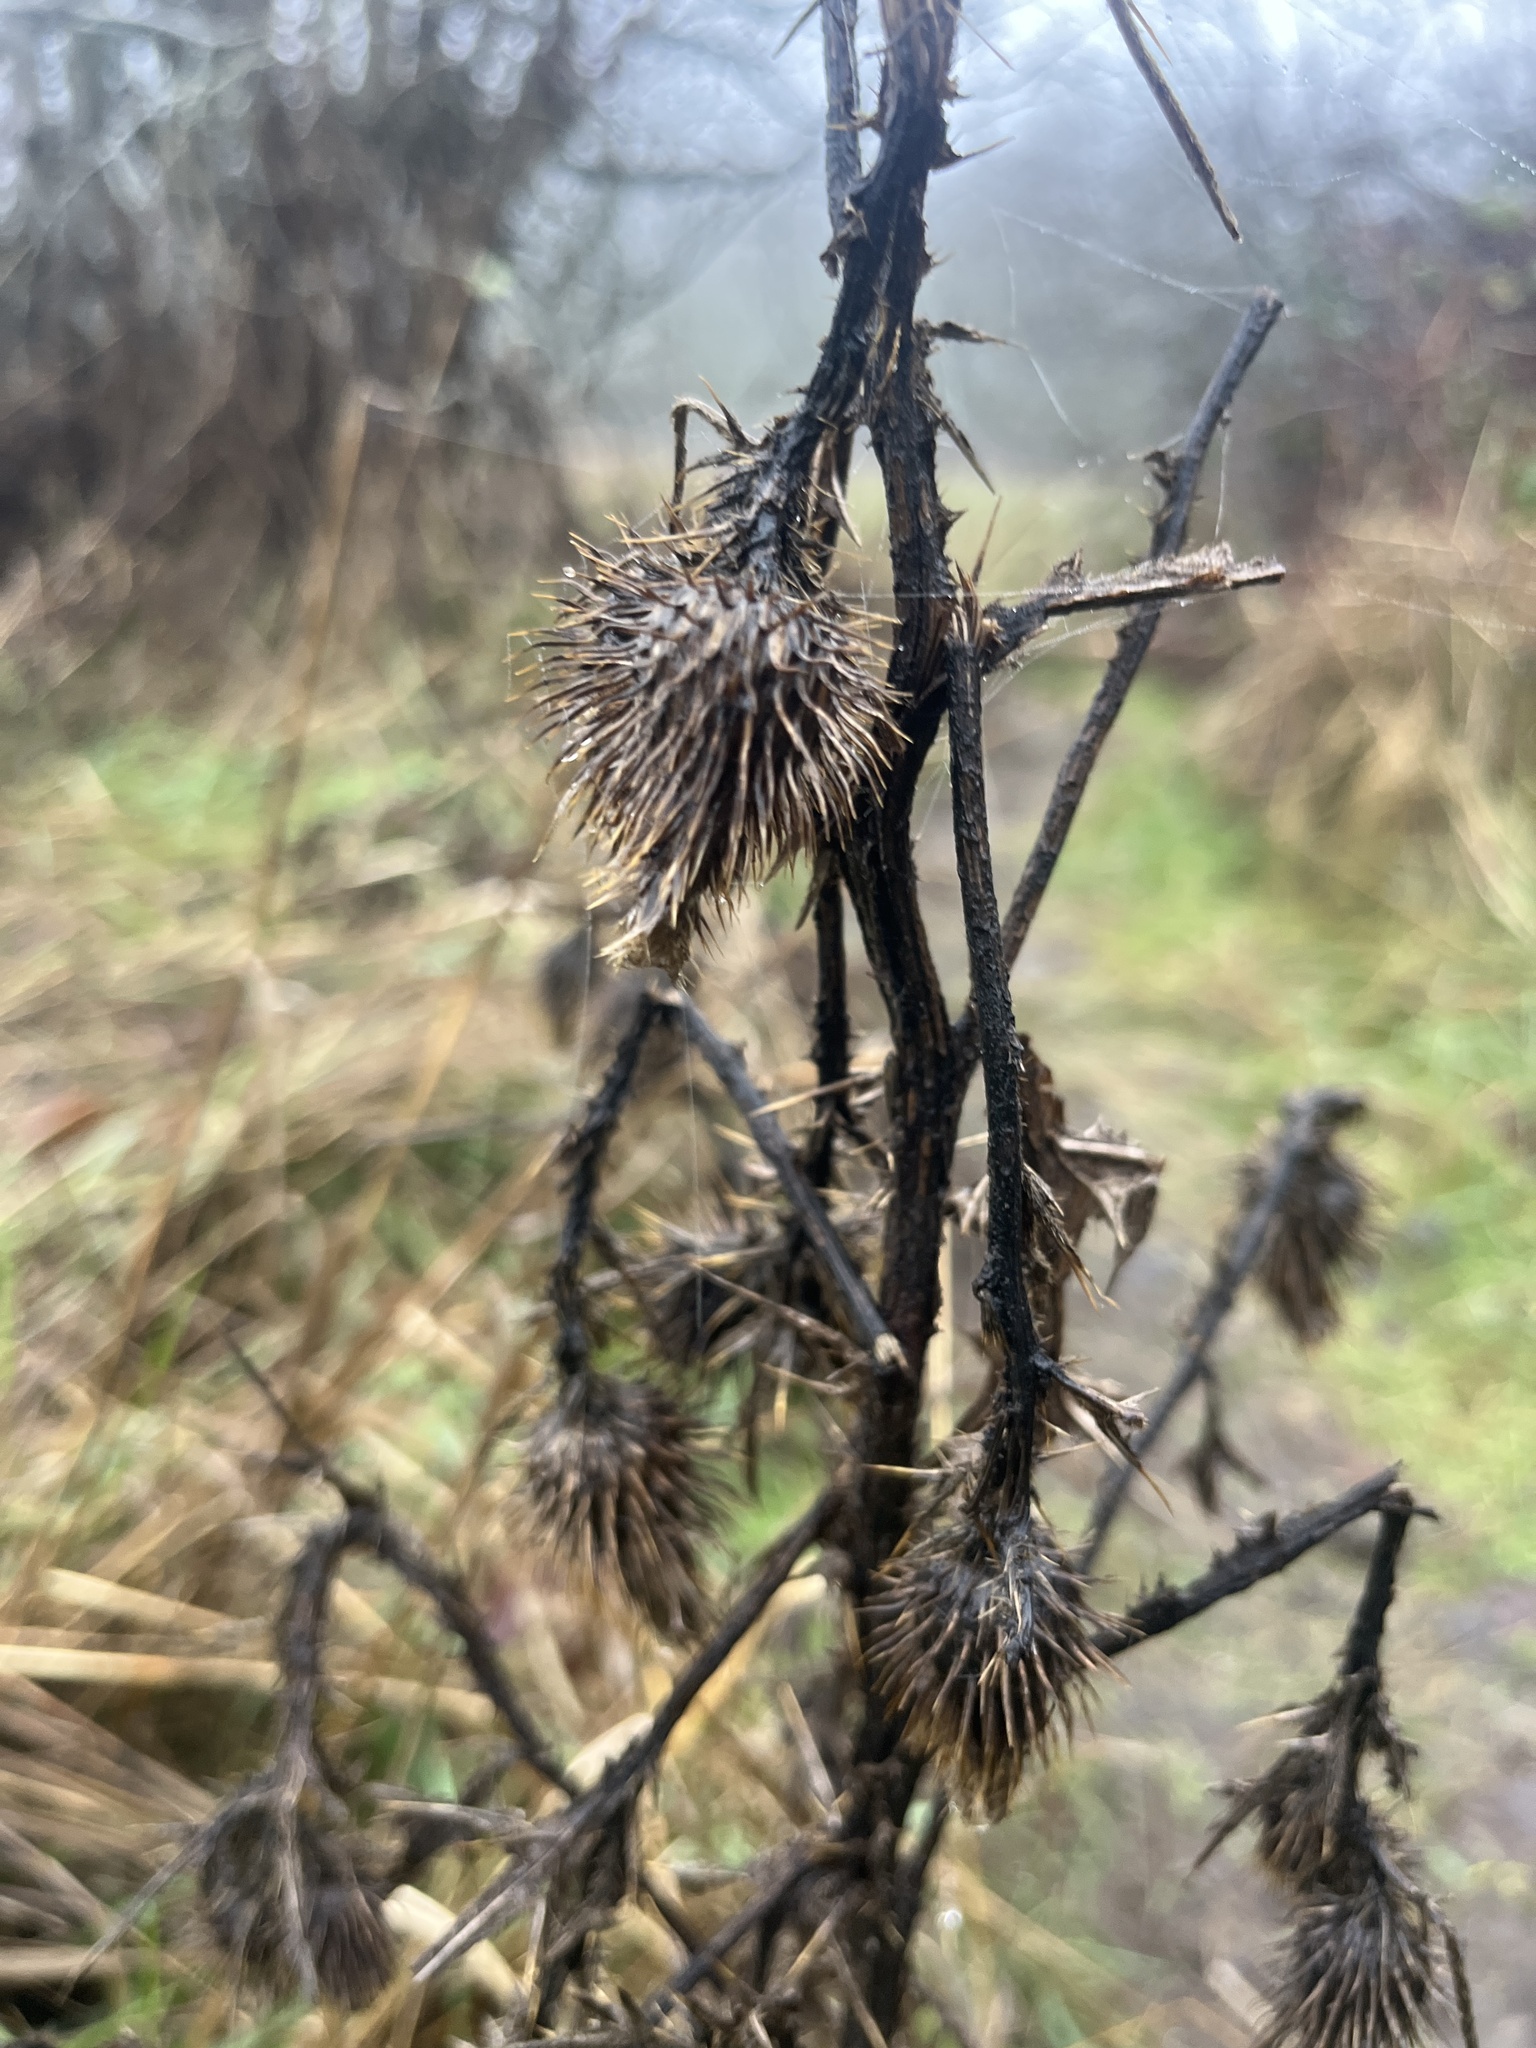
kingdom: Plantae
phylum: Tracheophyta
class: Magnoliopsida
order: Asterales
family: Asteraceae
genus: Cirsium
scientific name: Cirsium vulgare
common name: Bull thistle
